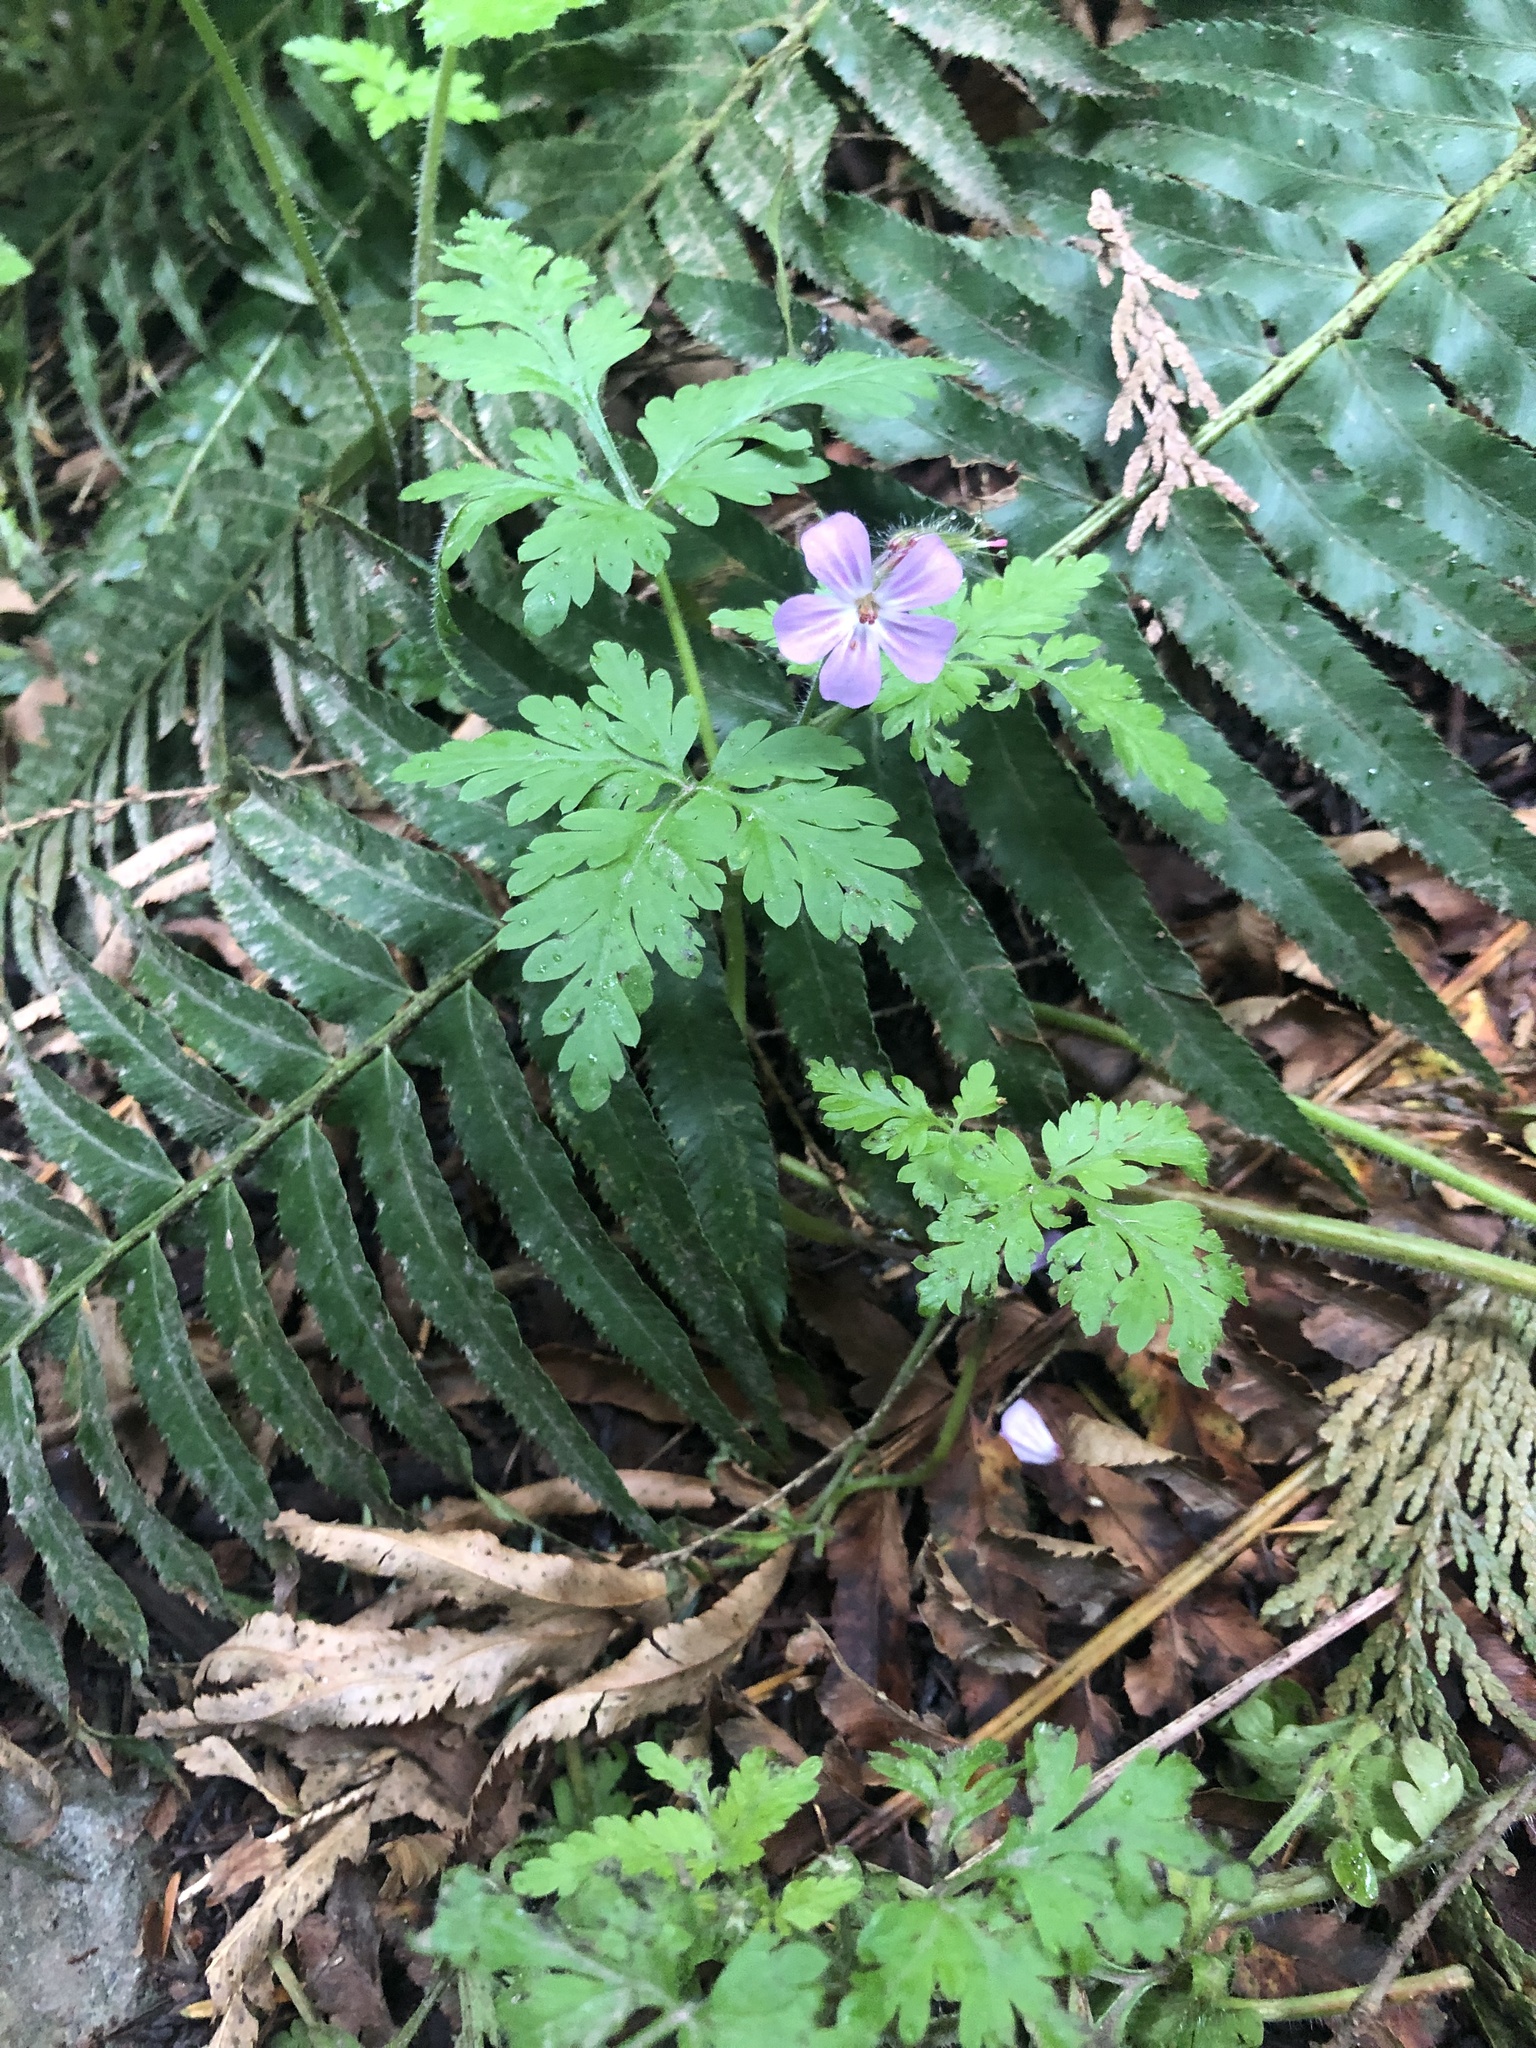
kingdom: Plantae
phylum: Tracheophyta
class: Magnoliopsida
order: Geraniales
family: Geraniaceae
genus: Geranium
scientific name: Geranium robertianum
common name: Herb-robert
